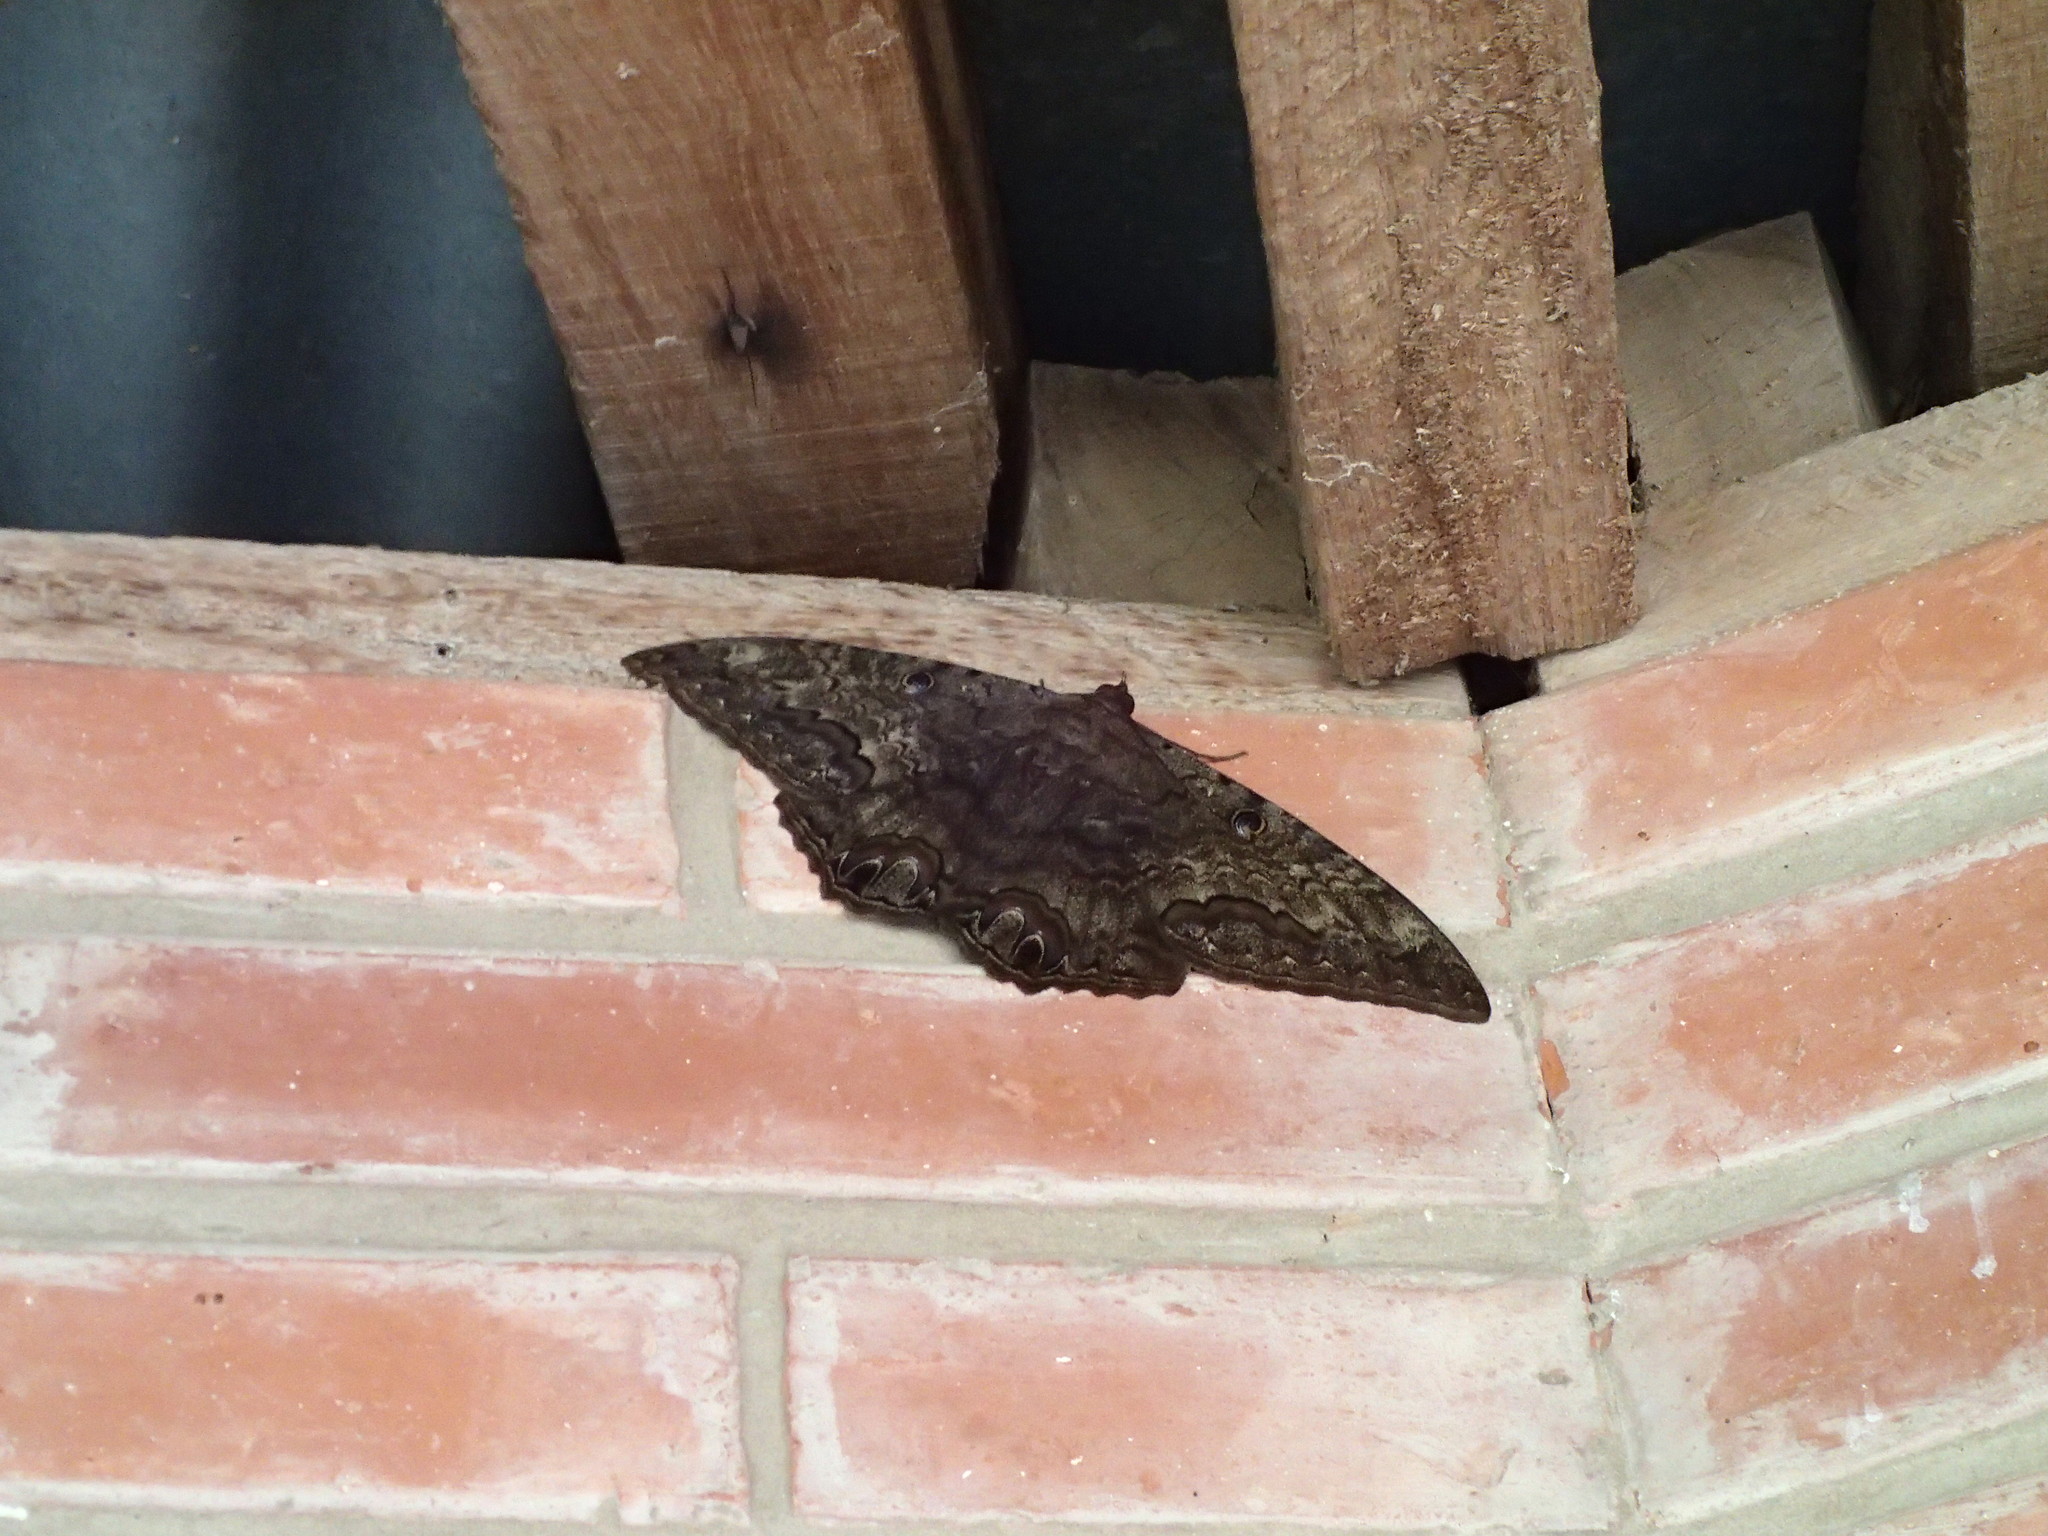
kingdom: Animalia
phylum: Arthropoda
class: Insecta
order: Lepidoptera
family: Erebidae
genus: Ascalapha
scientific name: Ascalapha odorata
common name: Black witch
